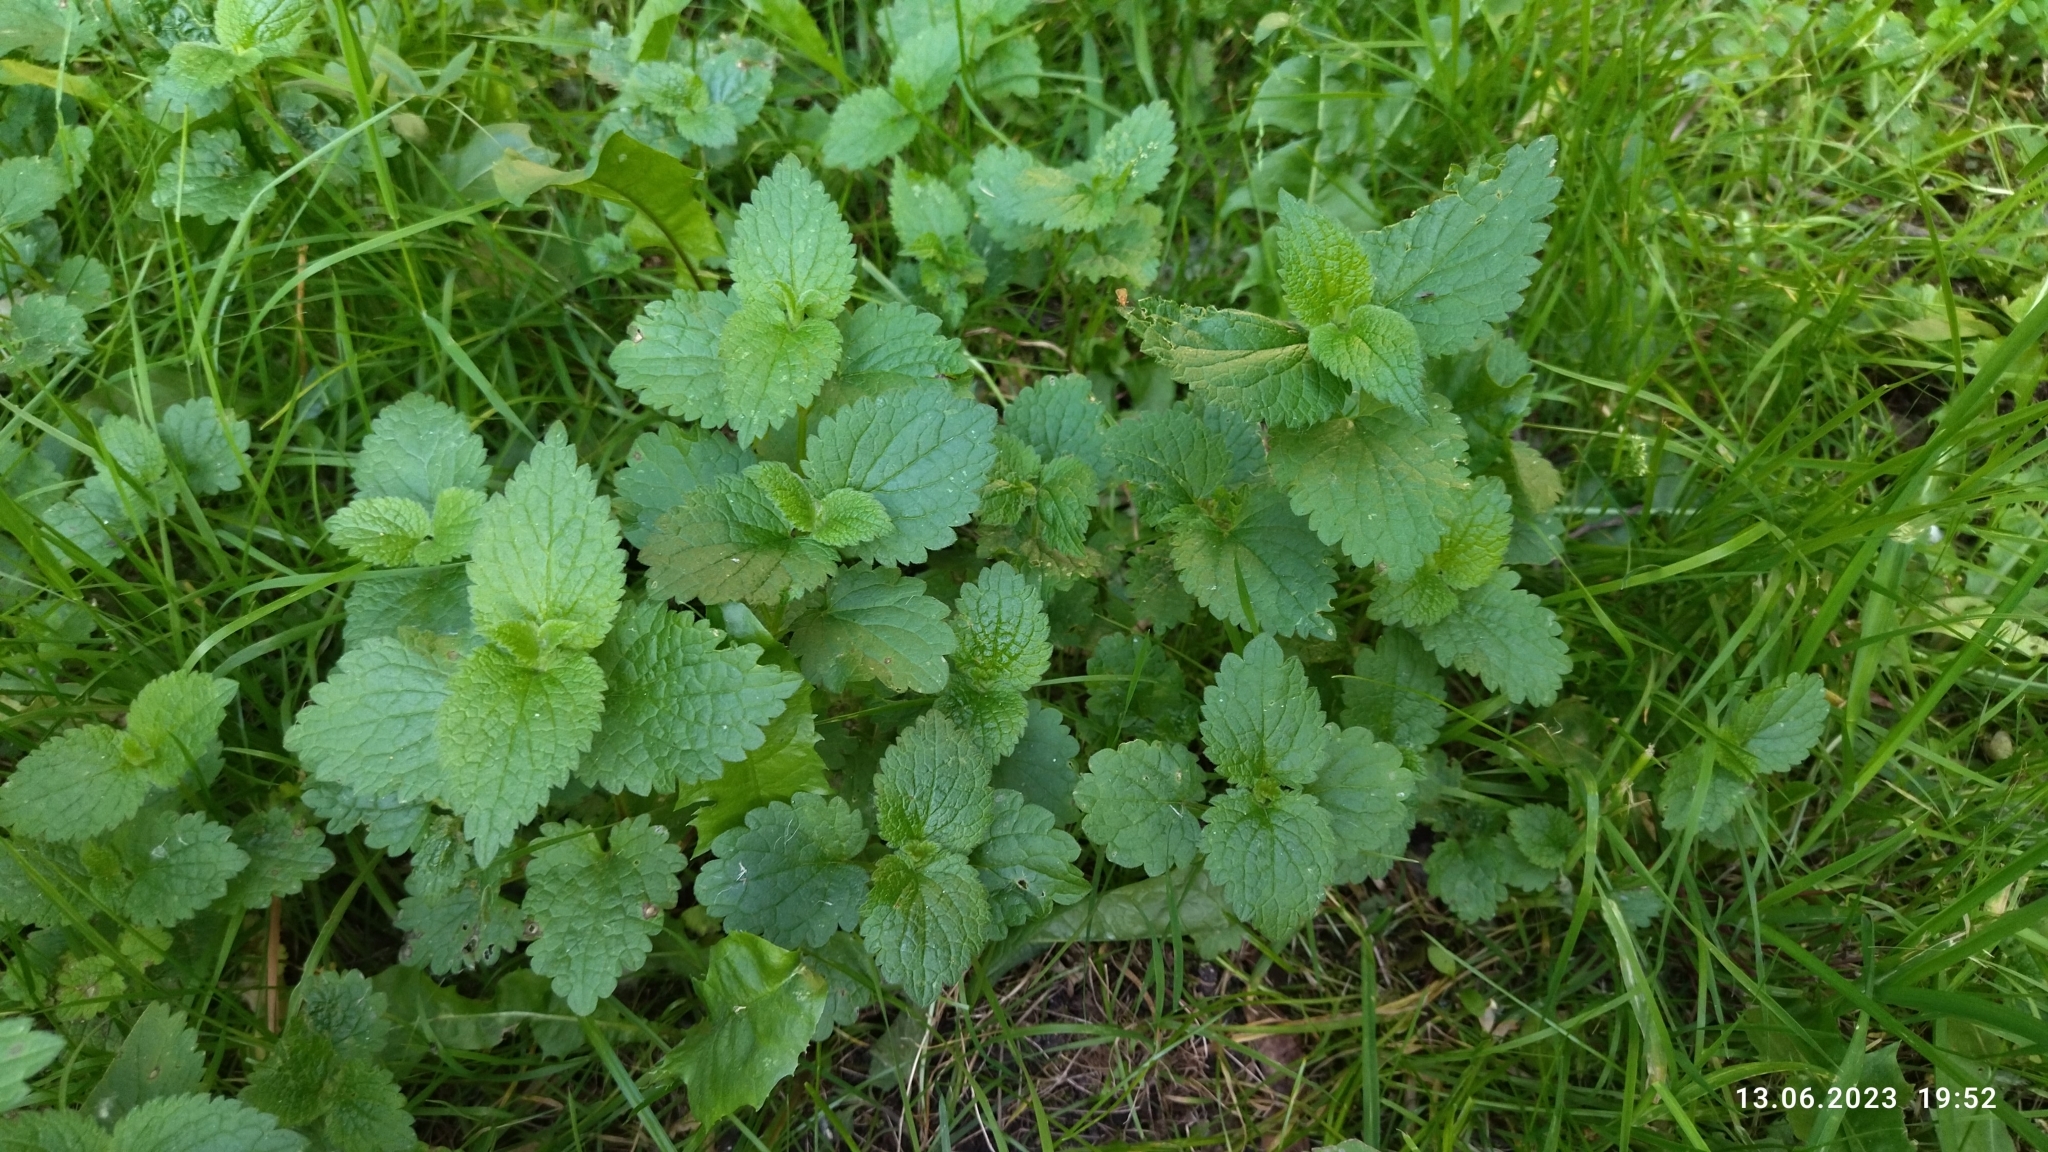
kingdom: Plantae
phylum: Tracheophyta
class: Magnoliopsida
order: Lamiales
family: Lamiaceae
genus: Lamium
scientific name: Lamium album
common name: White dead-nettle
